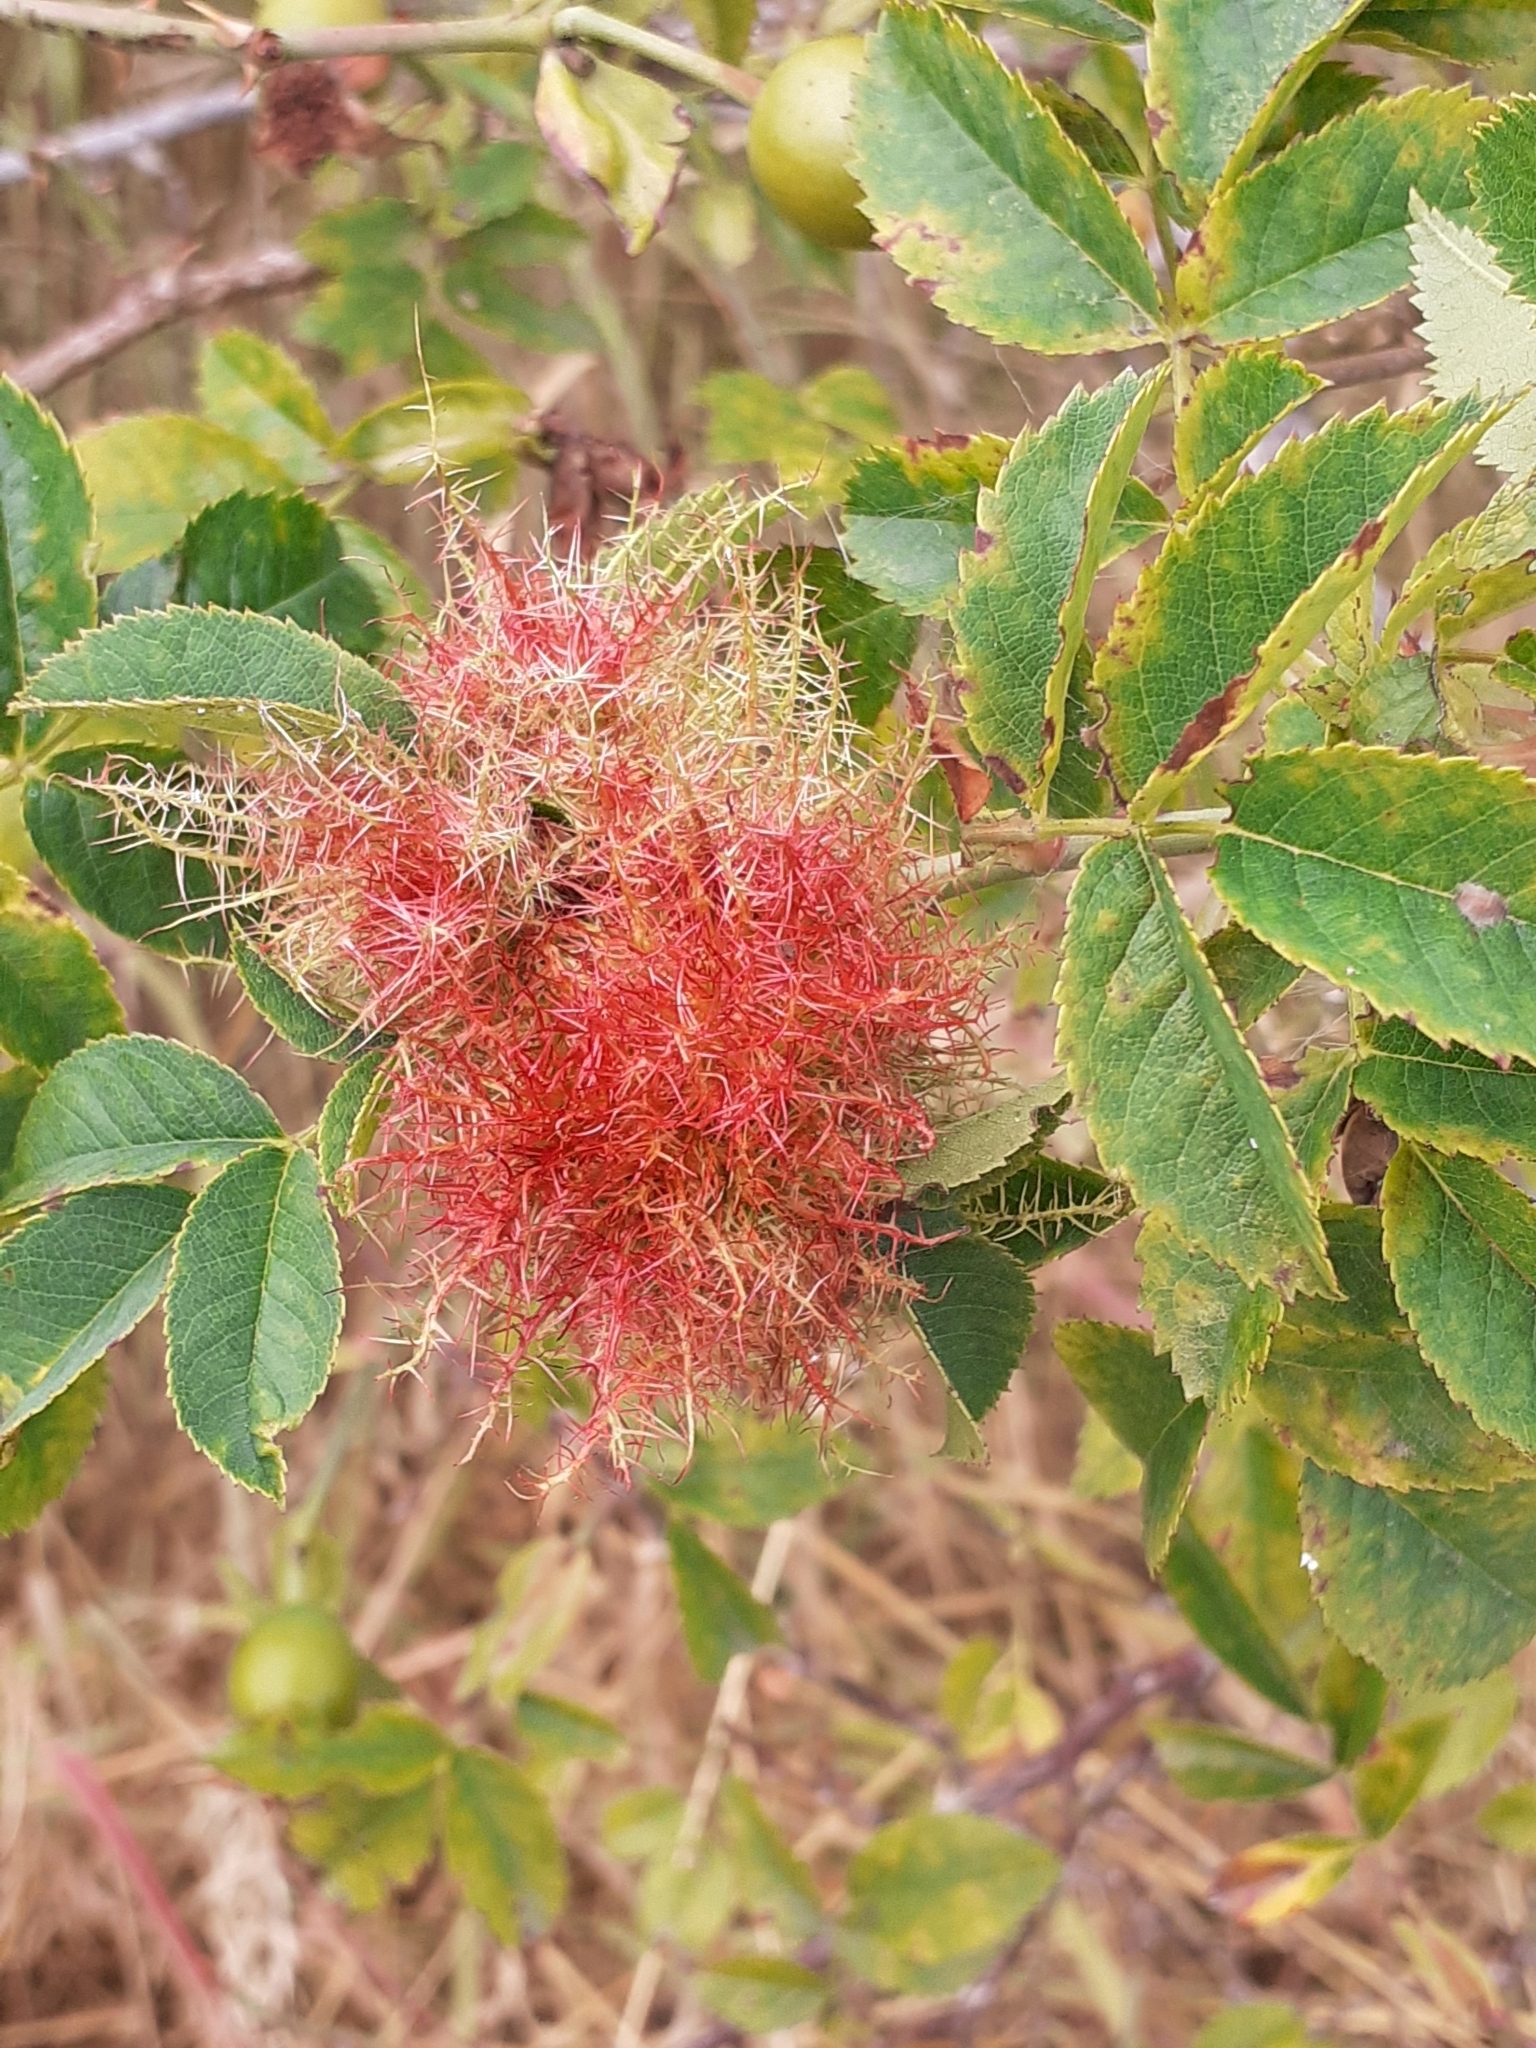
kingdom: Animalia
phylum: Arthropoda
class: Insecta
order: Hymenoptera
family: Cynipidae
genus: Diplolepis
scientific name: Diplolepis rosae
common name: Bedeguar gall
